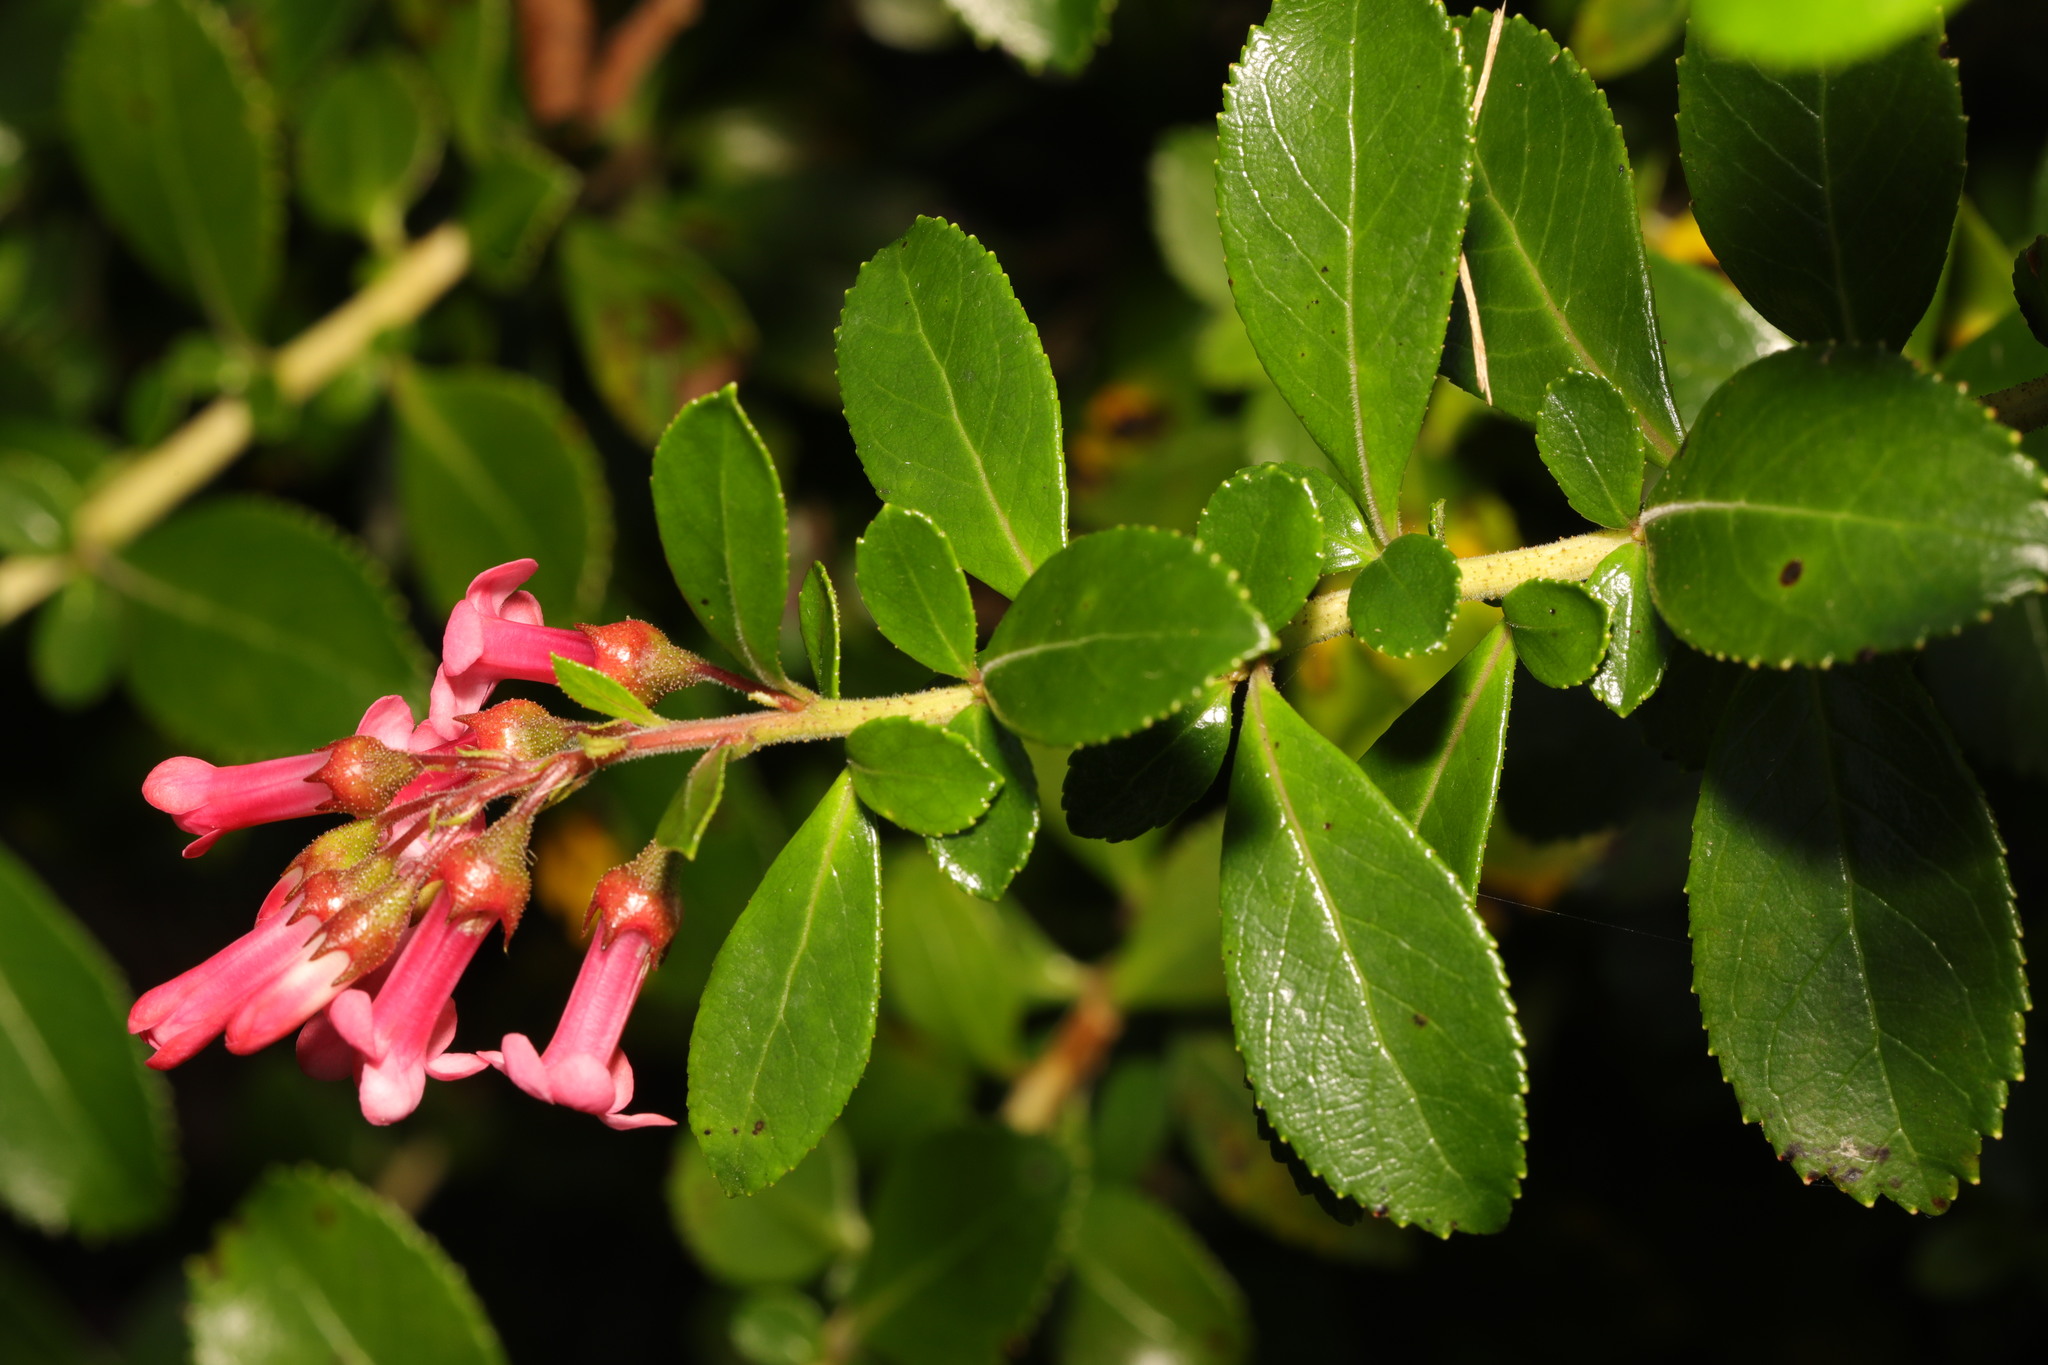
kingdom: Plantae
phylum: Tracheophyta
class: Magnoliopsida
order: Escalloniales
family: Escalloniaceae
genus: Escallonia
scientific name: Escallonia rubra
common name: Redclaws
